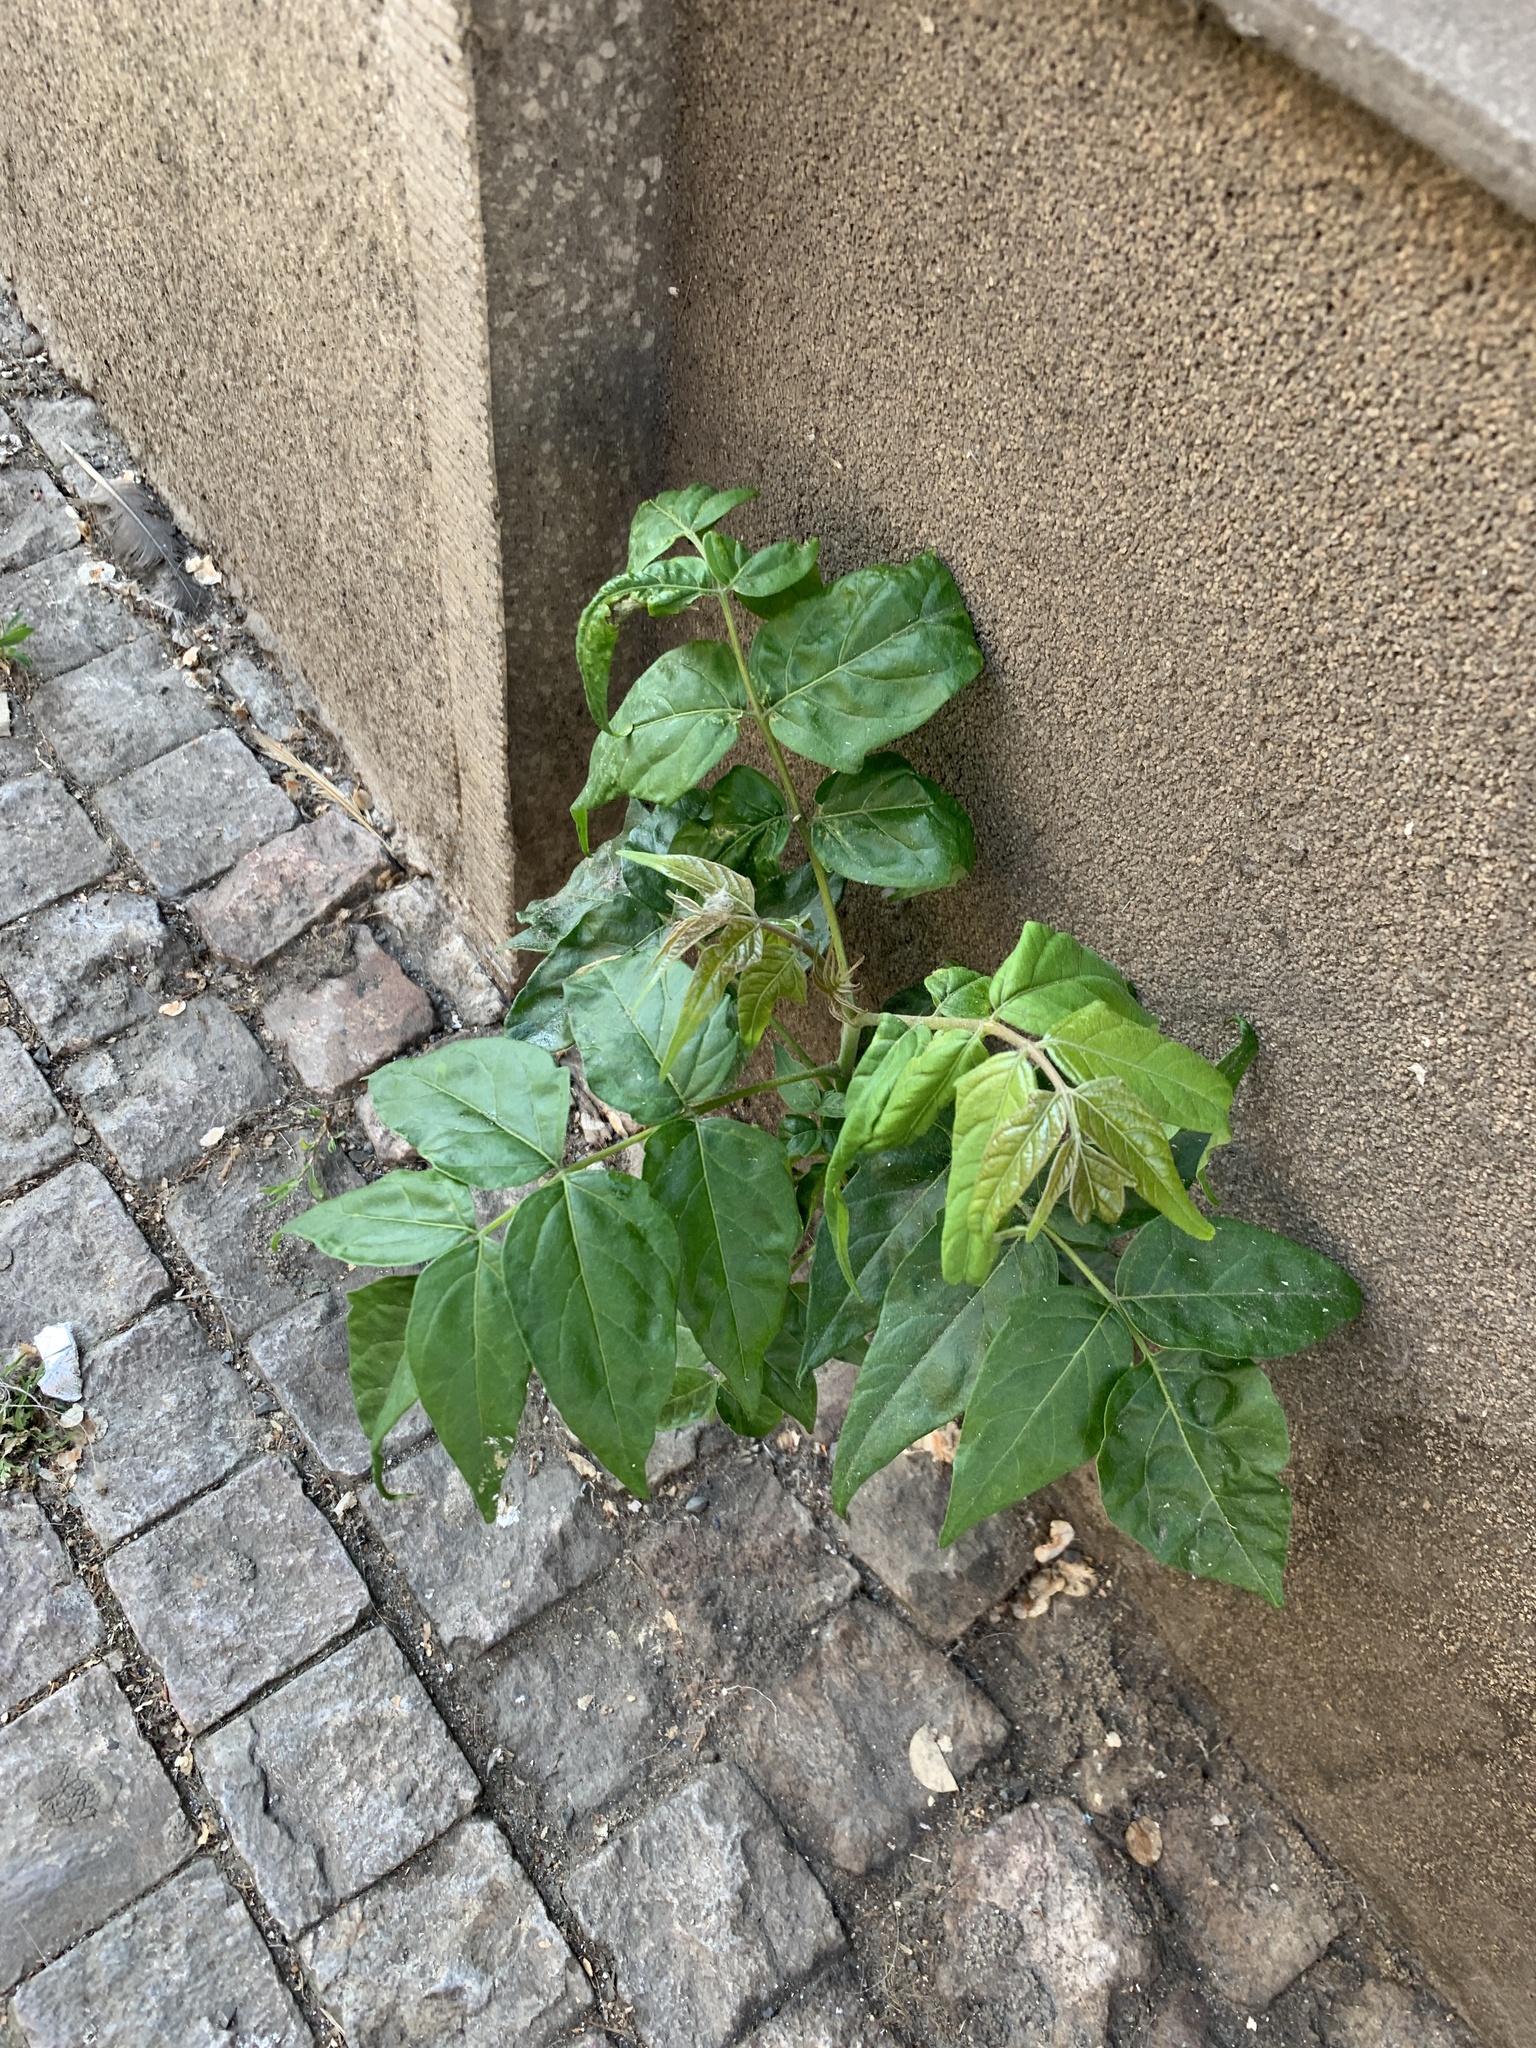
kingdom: Plantae
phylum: Tracheophyta
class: Magnoliopsida
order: Sapindales
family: Simaroubaceae
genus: Ailanthus
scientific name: Ailanthus altissima
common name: Tree-of-heaven
